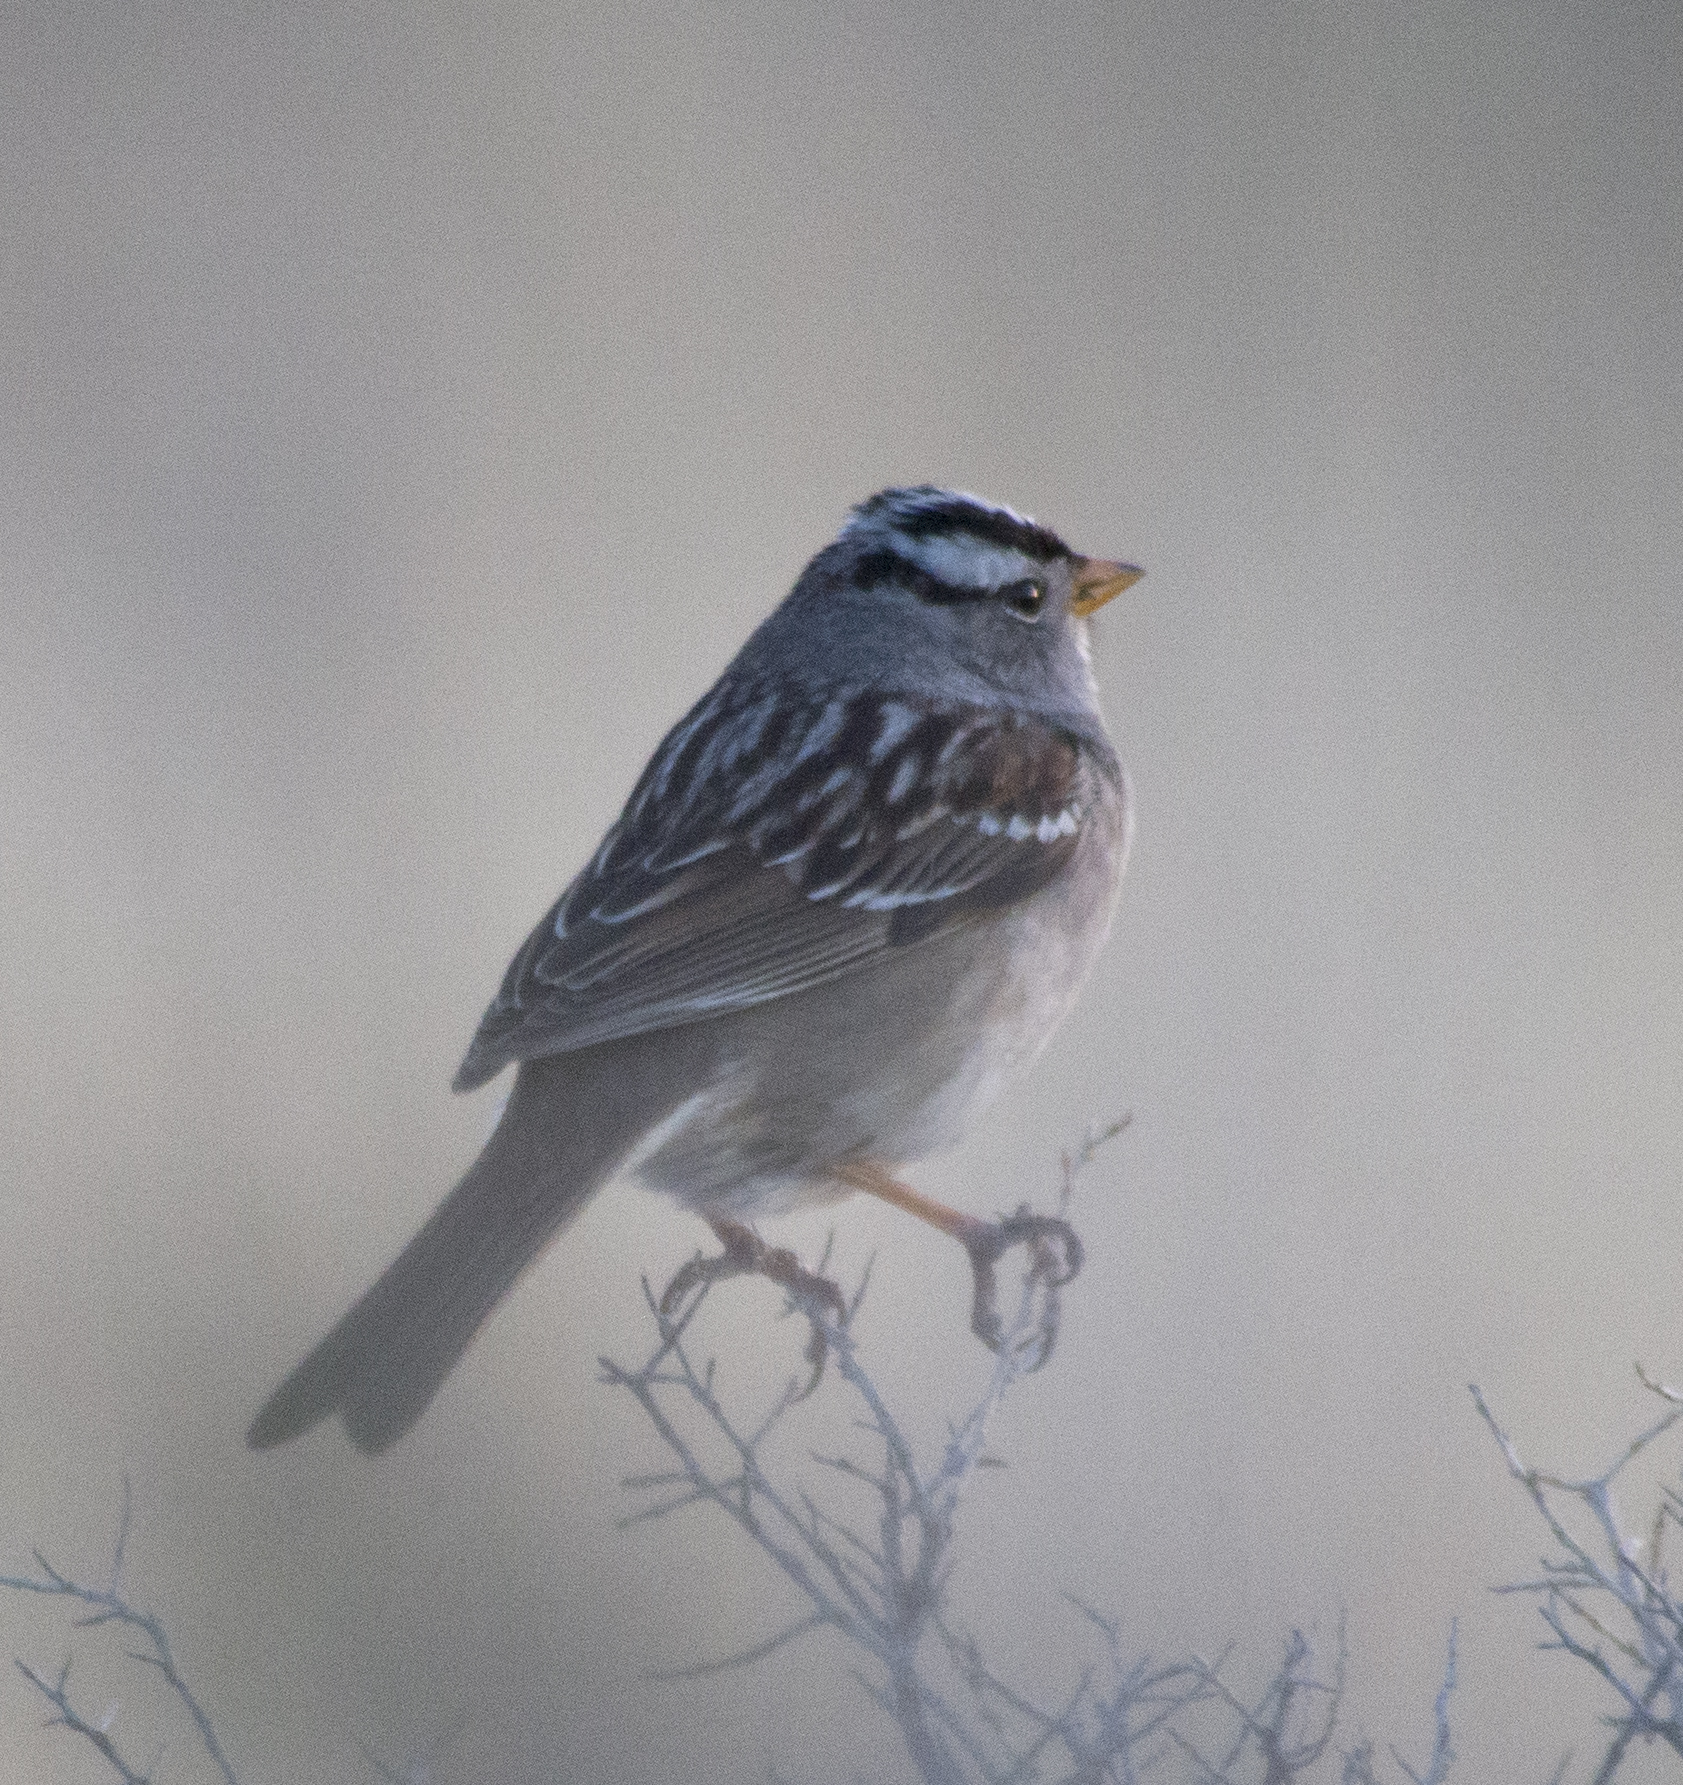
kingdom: Animalia
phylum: Chordata
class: Aves
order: Passeriformes
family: Passerellidae
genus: Zonotrichia
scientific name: Zonotrichia leucophrys
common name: White-crowned sparrow
